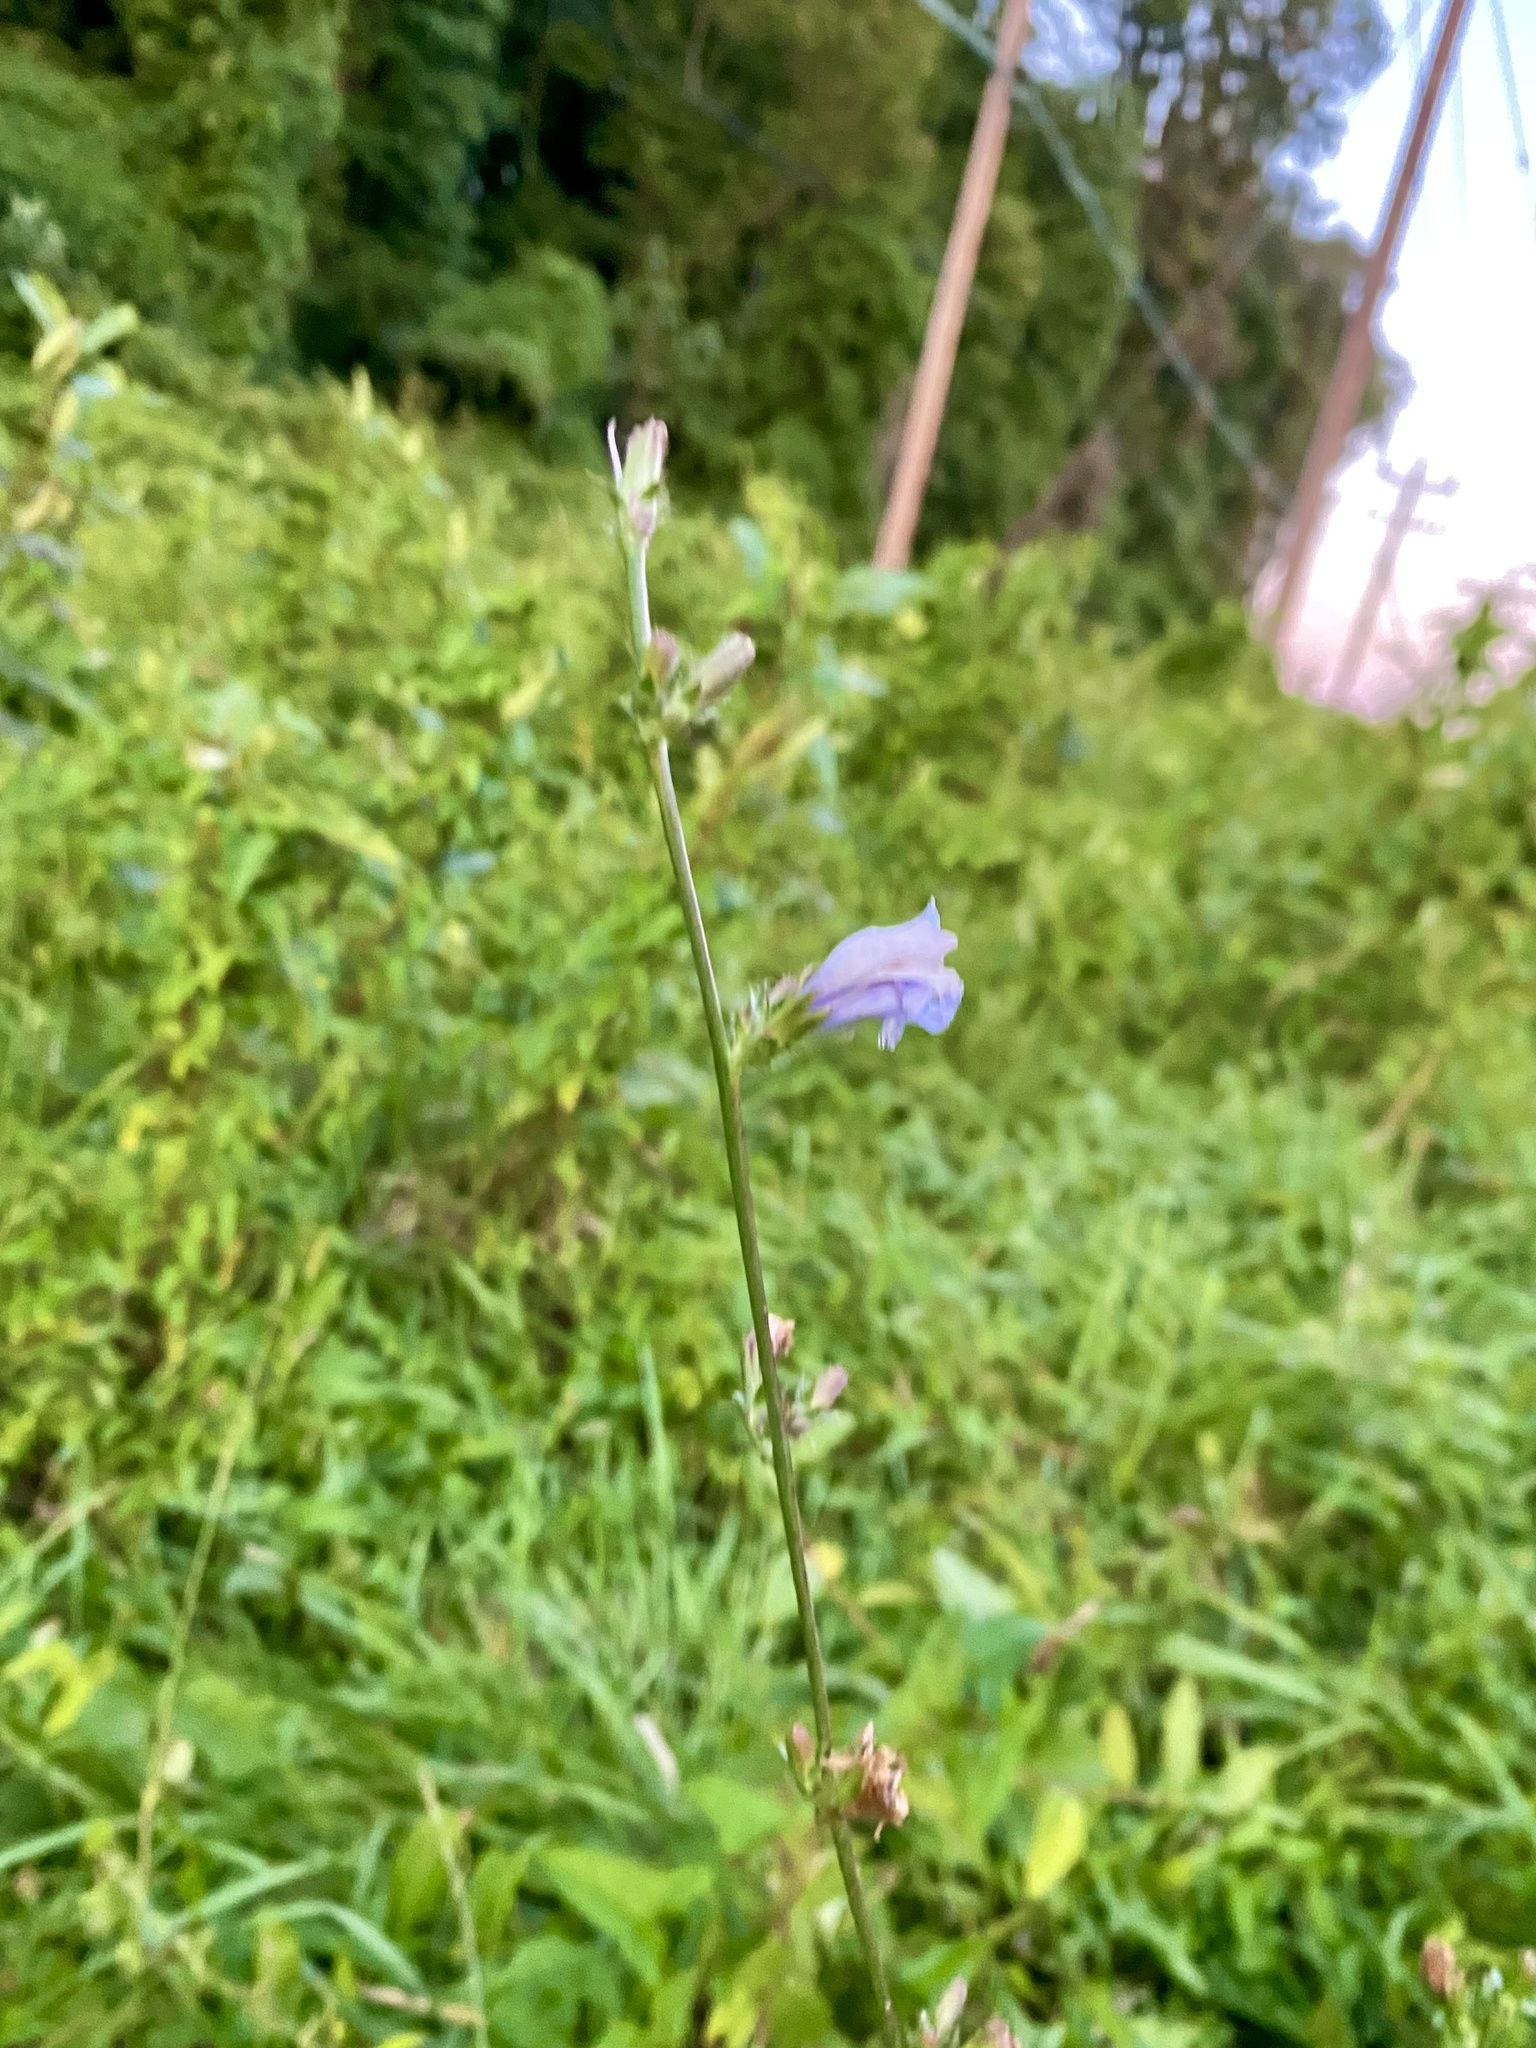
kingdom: Plantae
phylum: Tracheophyta
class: Magnoliopsida
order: Asterales
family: Asteraceae
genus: Cichorium
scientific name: Cichorium intybus
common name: Chicory
